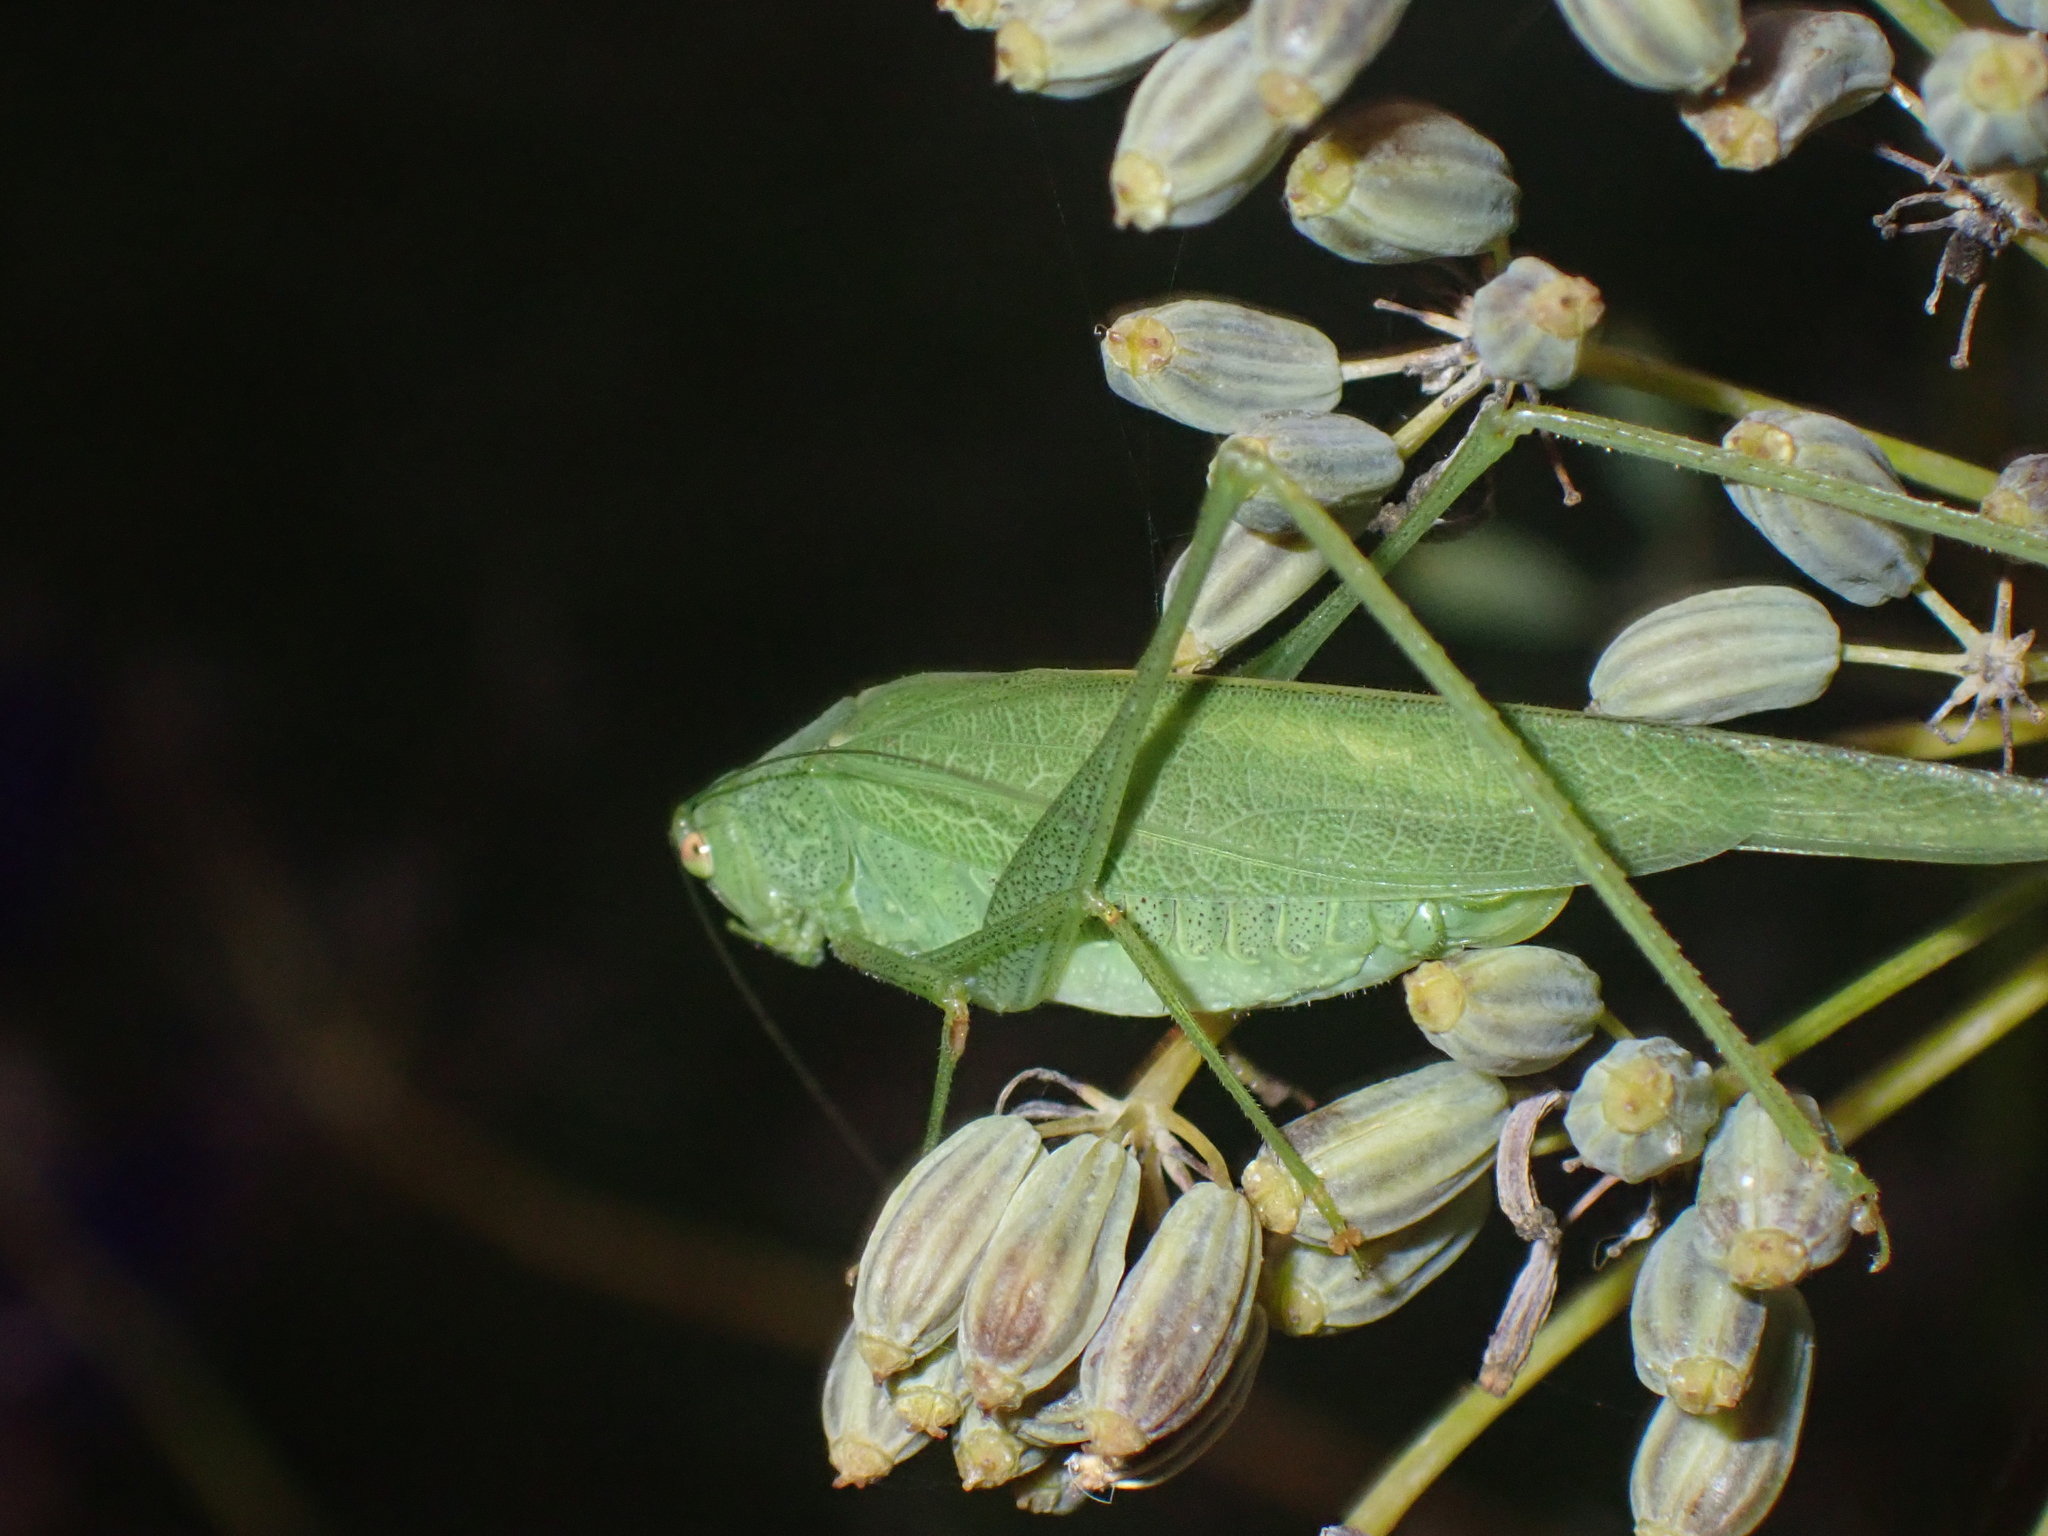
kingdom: Animalia
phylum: Arthropoda
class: Insecta
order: Orthoptera
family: Tettigoniidae
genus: Phaneroptera
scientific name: Phaneroptera nana
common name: Southern sickle bush-cricket
